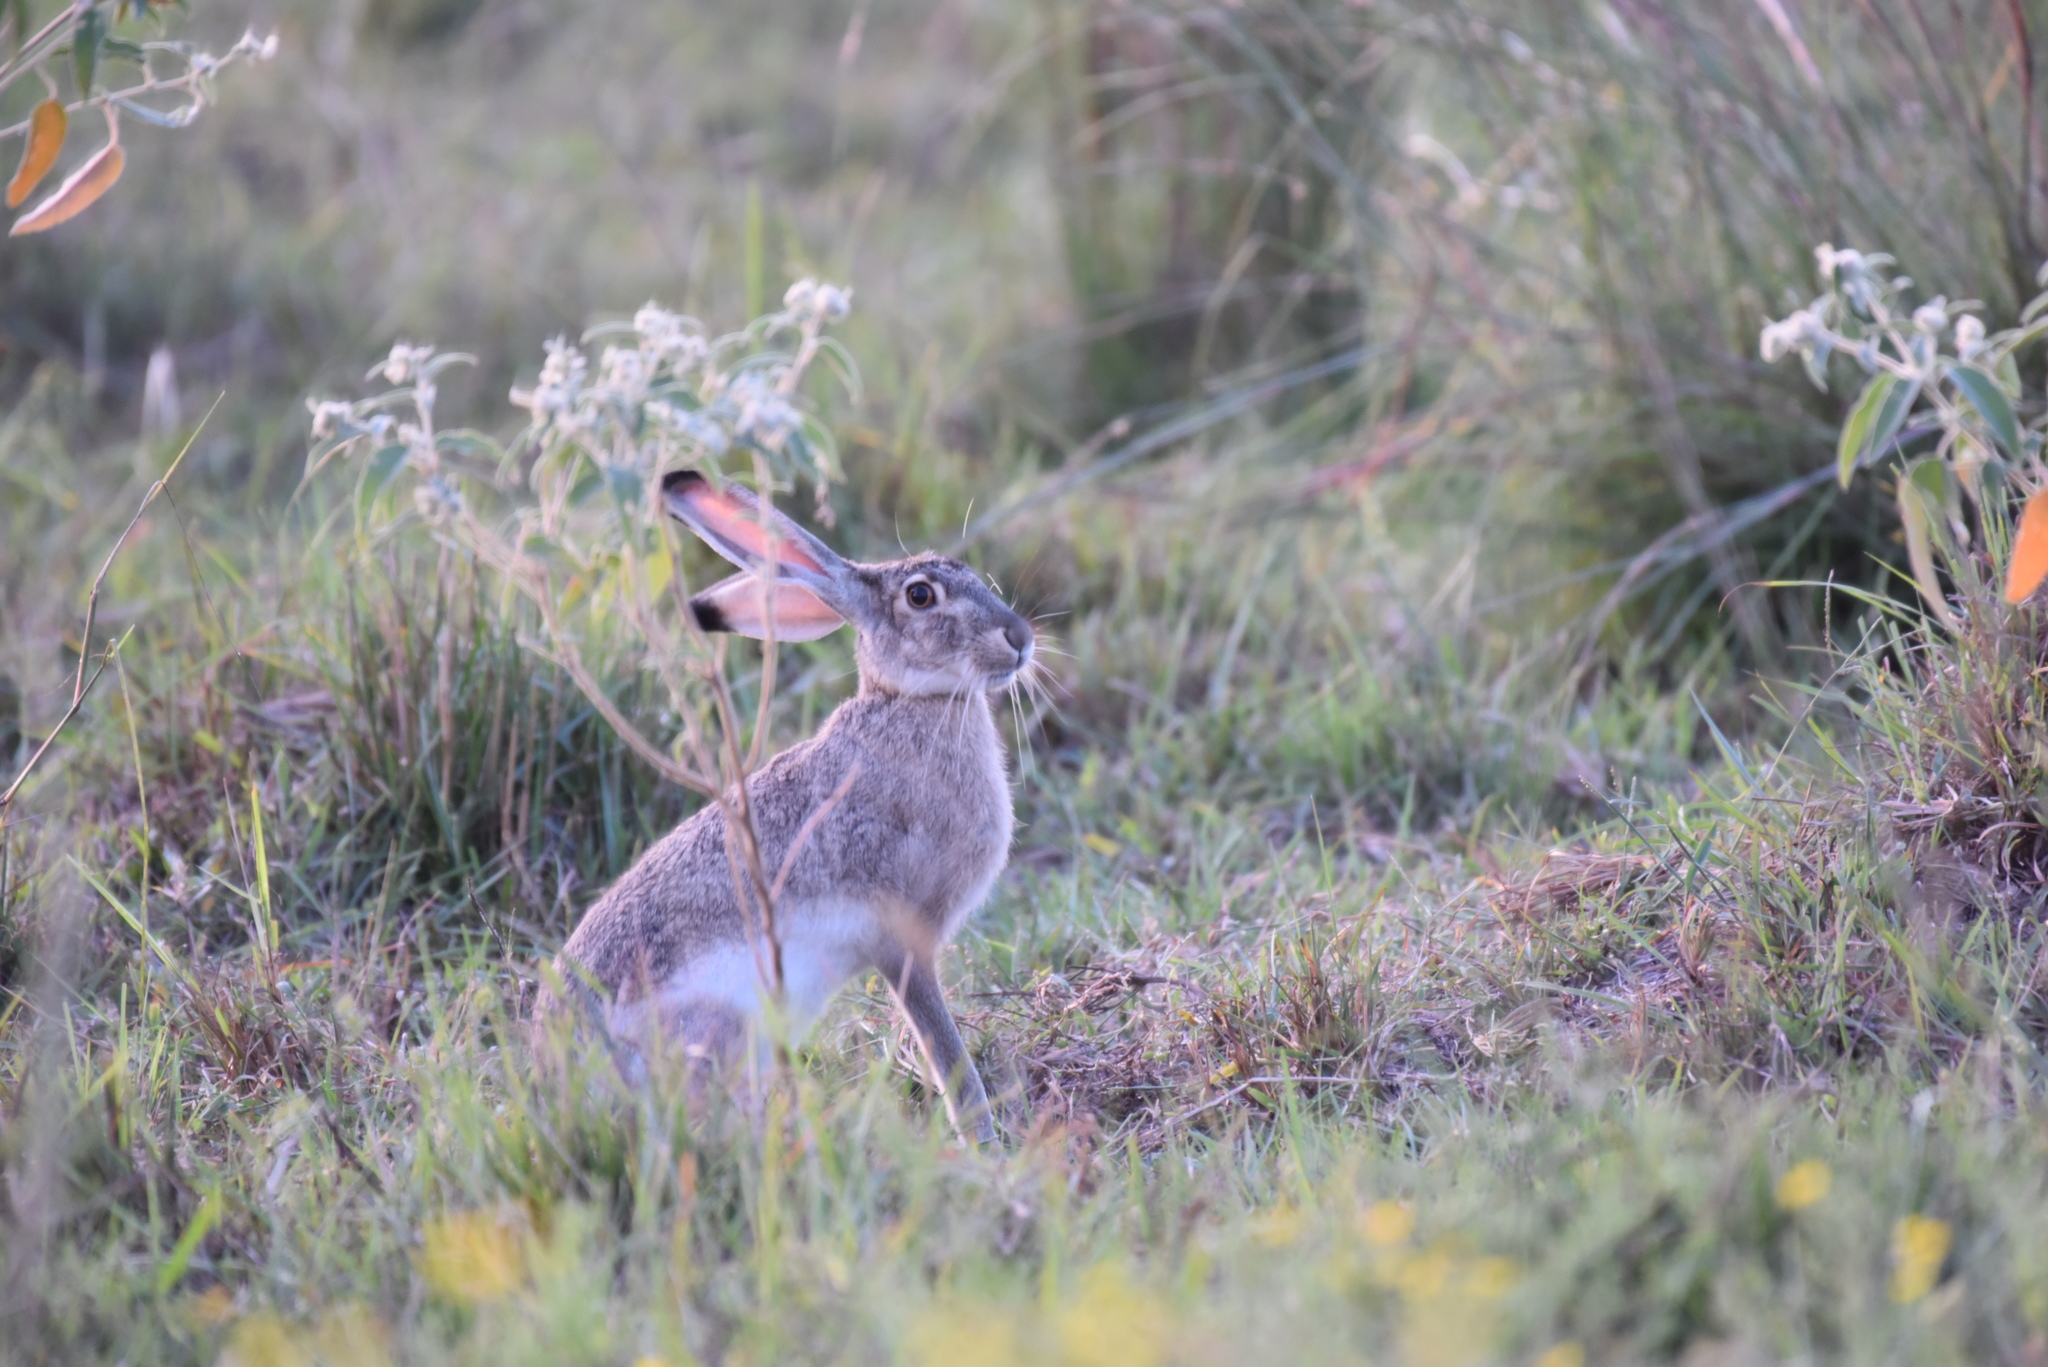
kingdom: Animalia
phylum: Chordata
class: Mammalia
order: Lagomorpha
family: Leporidae
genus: Lepus
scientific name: Lepus californicus
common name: Black-tailed jackrabbit
